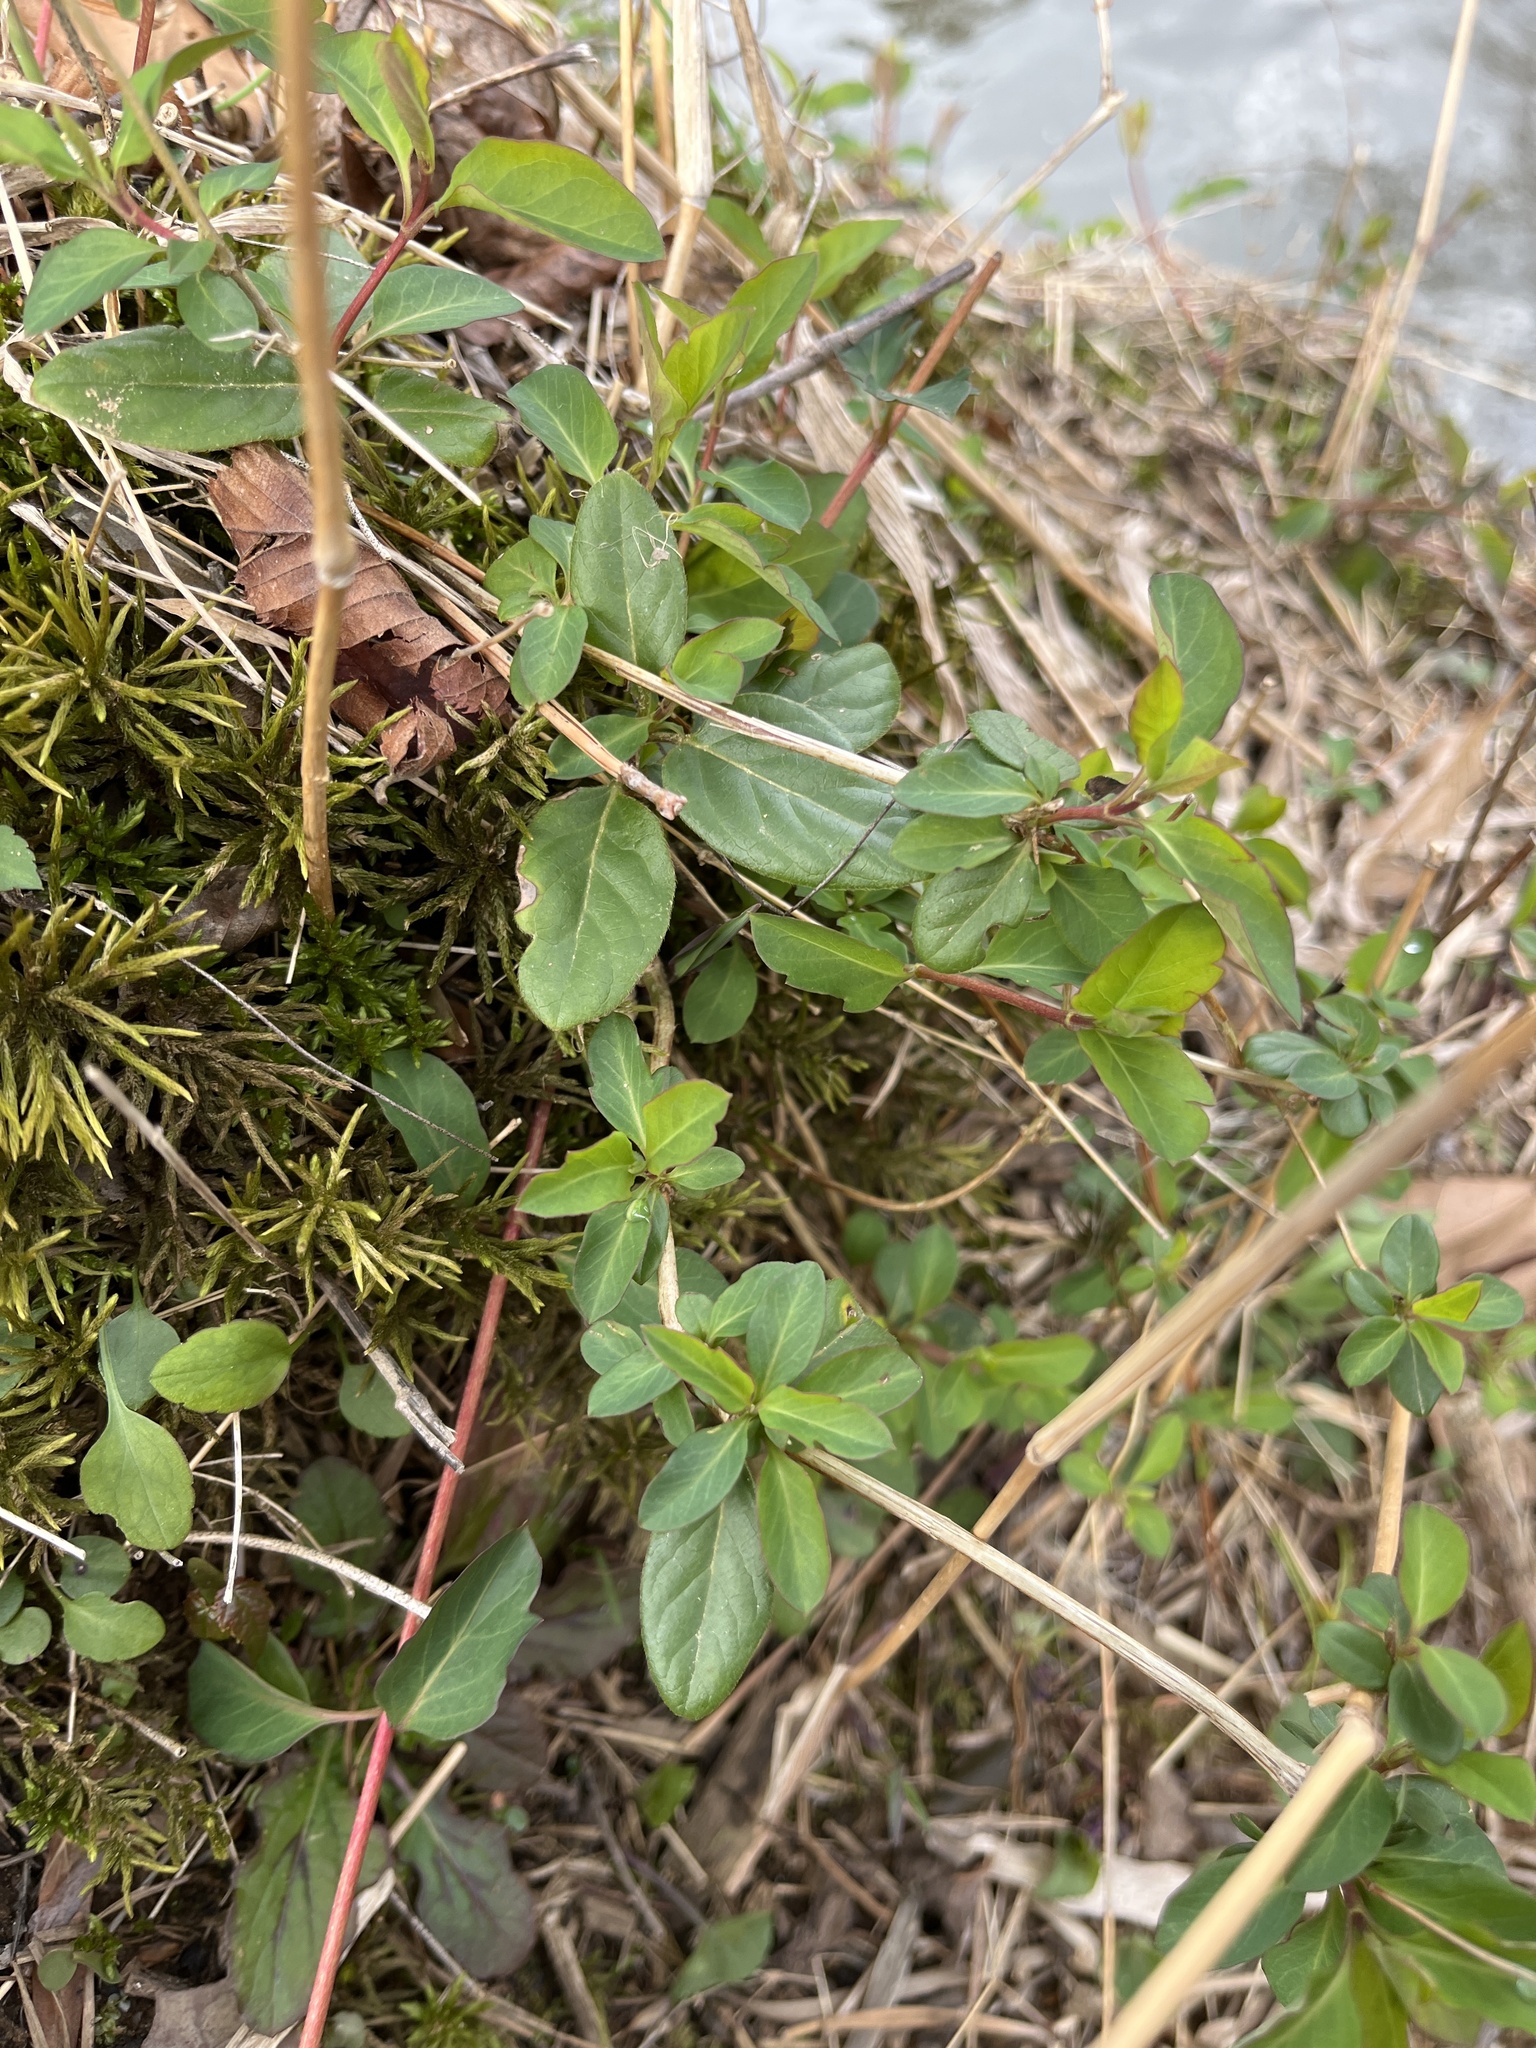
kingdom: Plantae
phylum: Tracheophyta
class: Magnoliopsida
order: Dipsacales
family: Caprifoliaceae
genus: Lonicera
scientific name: Lonicera japonica
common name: Japanese honeysuckle
